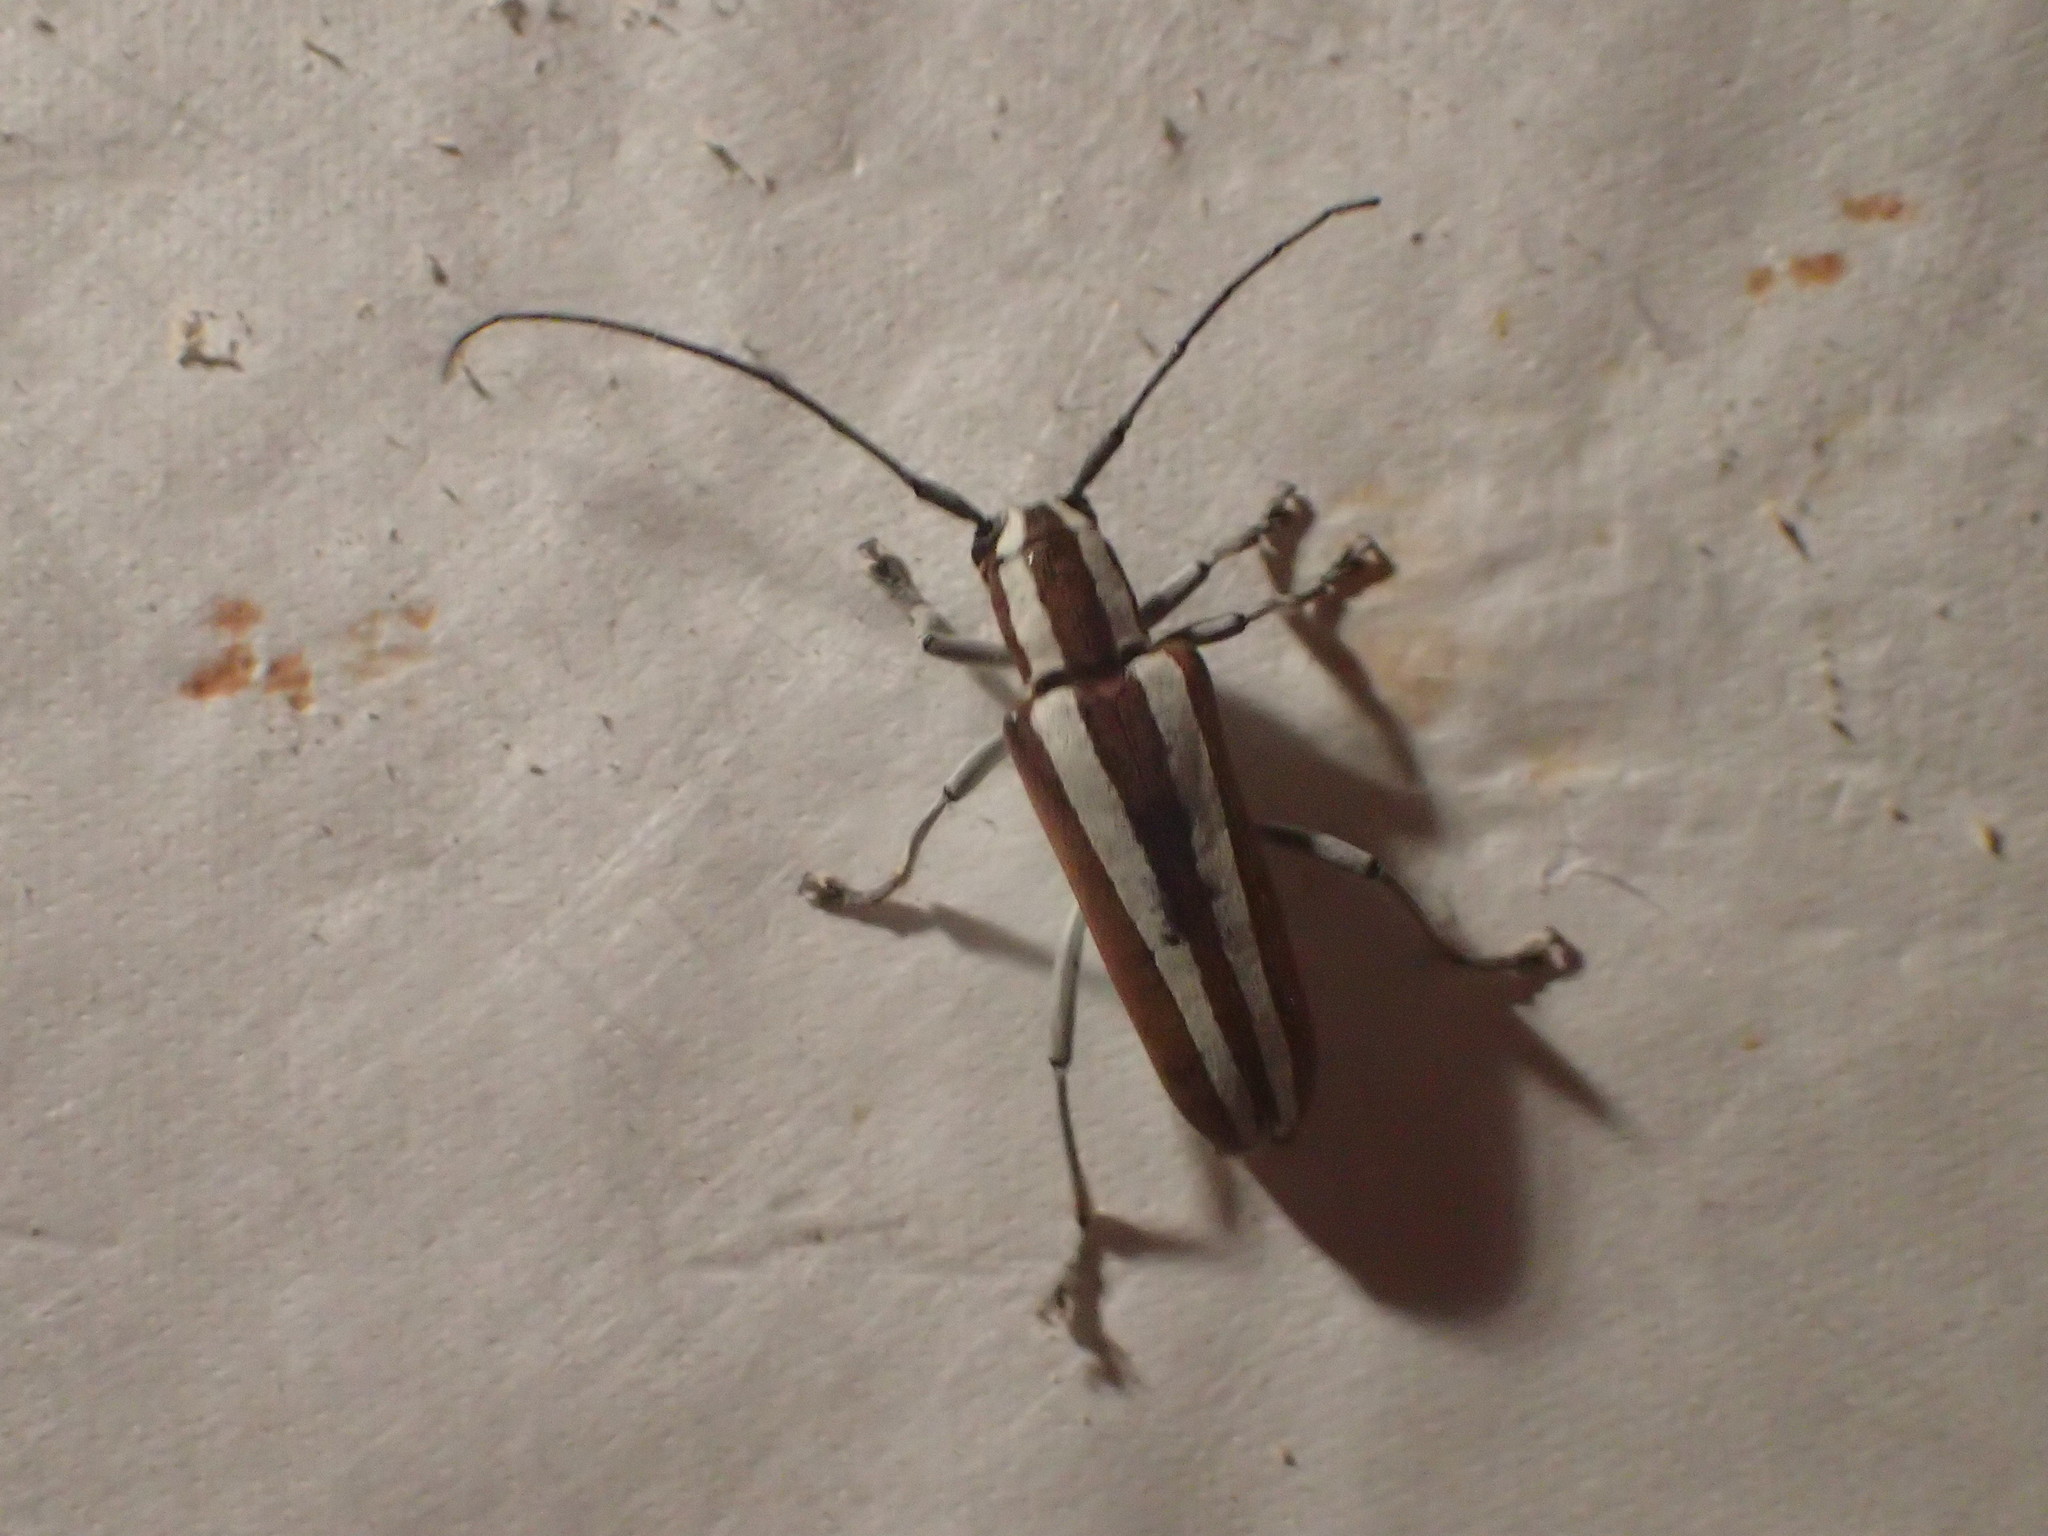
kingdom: Animalia
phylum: Arthropoda
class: Insecta
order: Coleoptera
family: Cerambycidae
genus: Saperda
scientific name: Saperda candida
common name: Round-headed borer
